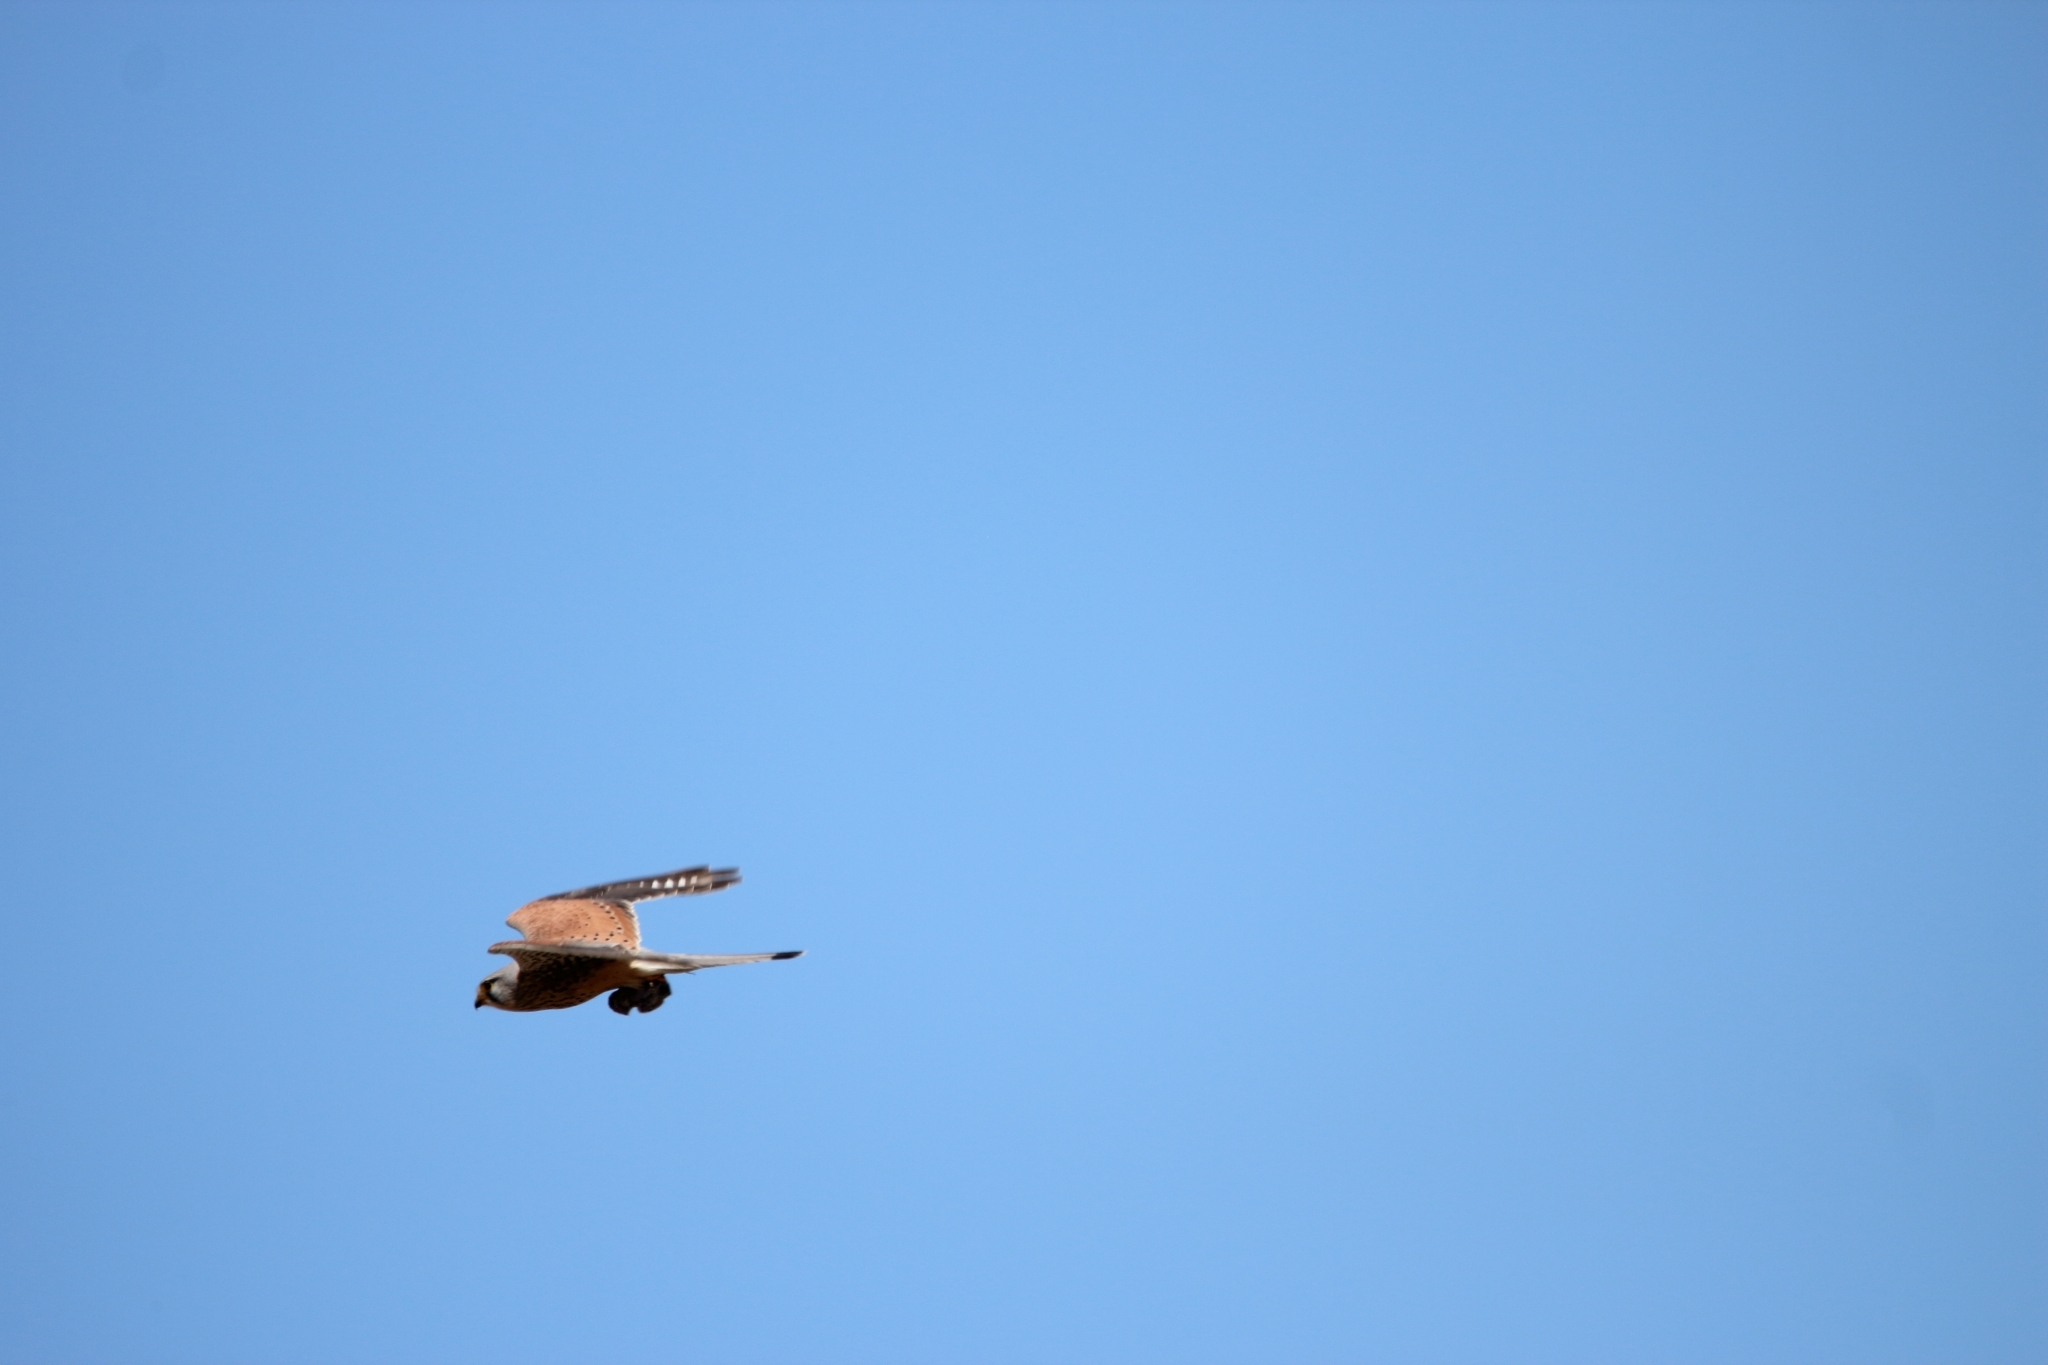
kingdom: Animalia
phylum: Chordata
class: Aves
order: Falconiformes
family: Falconidae
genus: Falco
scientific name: Falco tinnunculus
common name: Common kestrel
